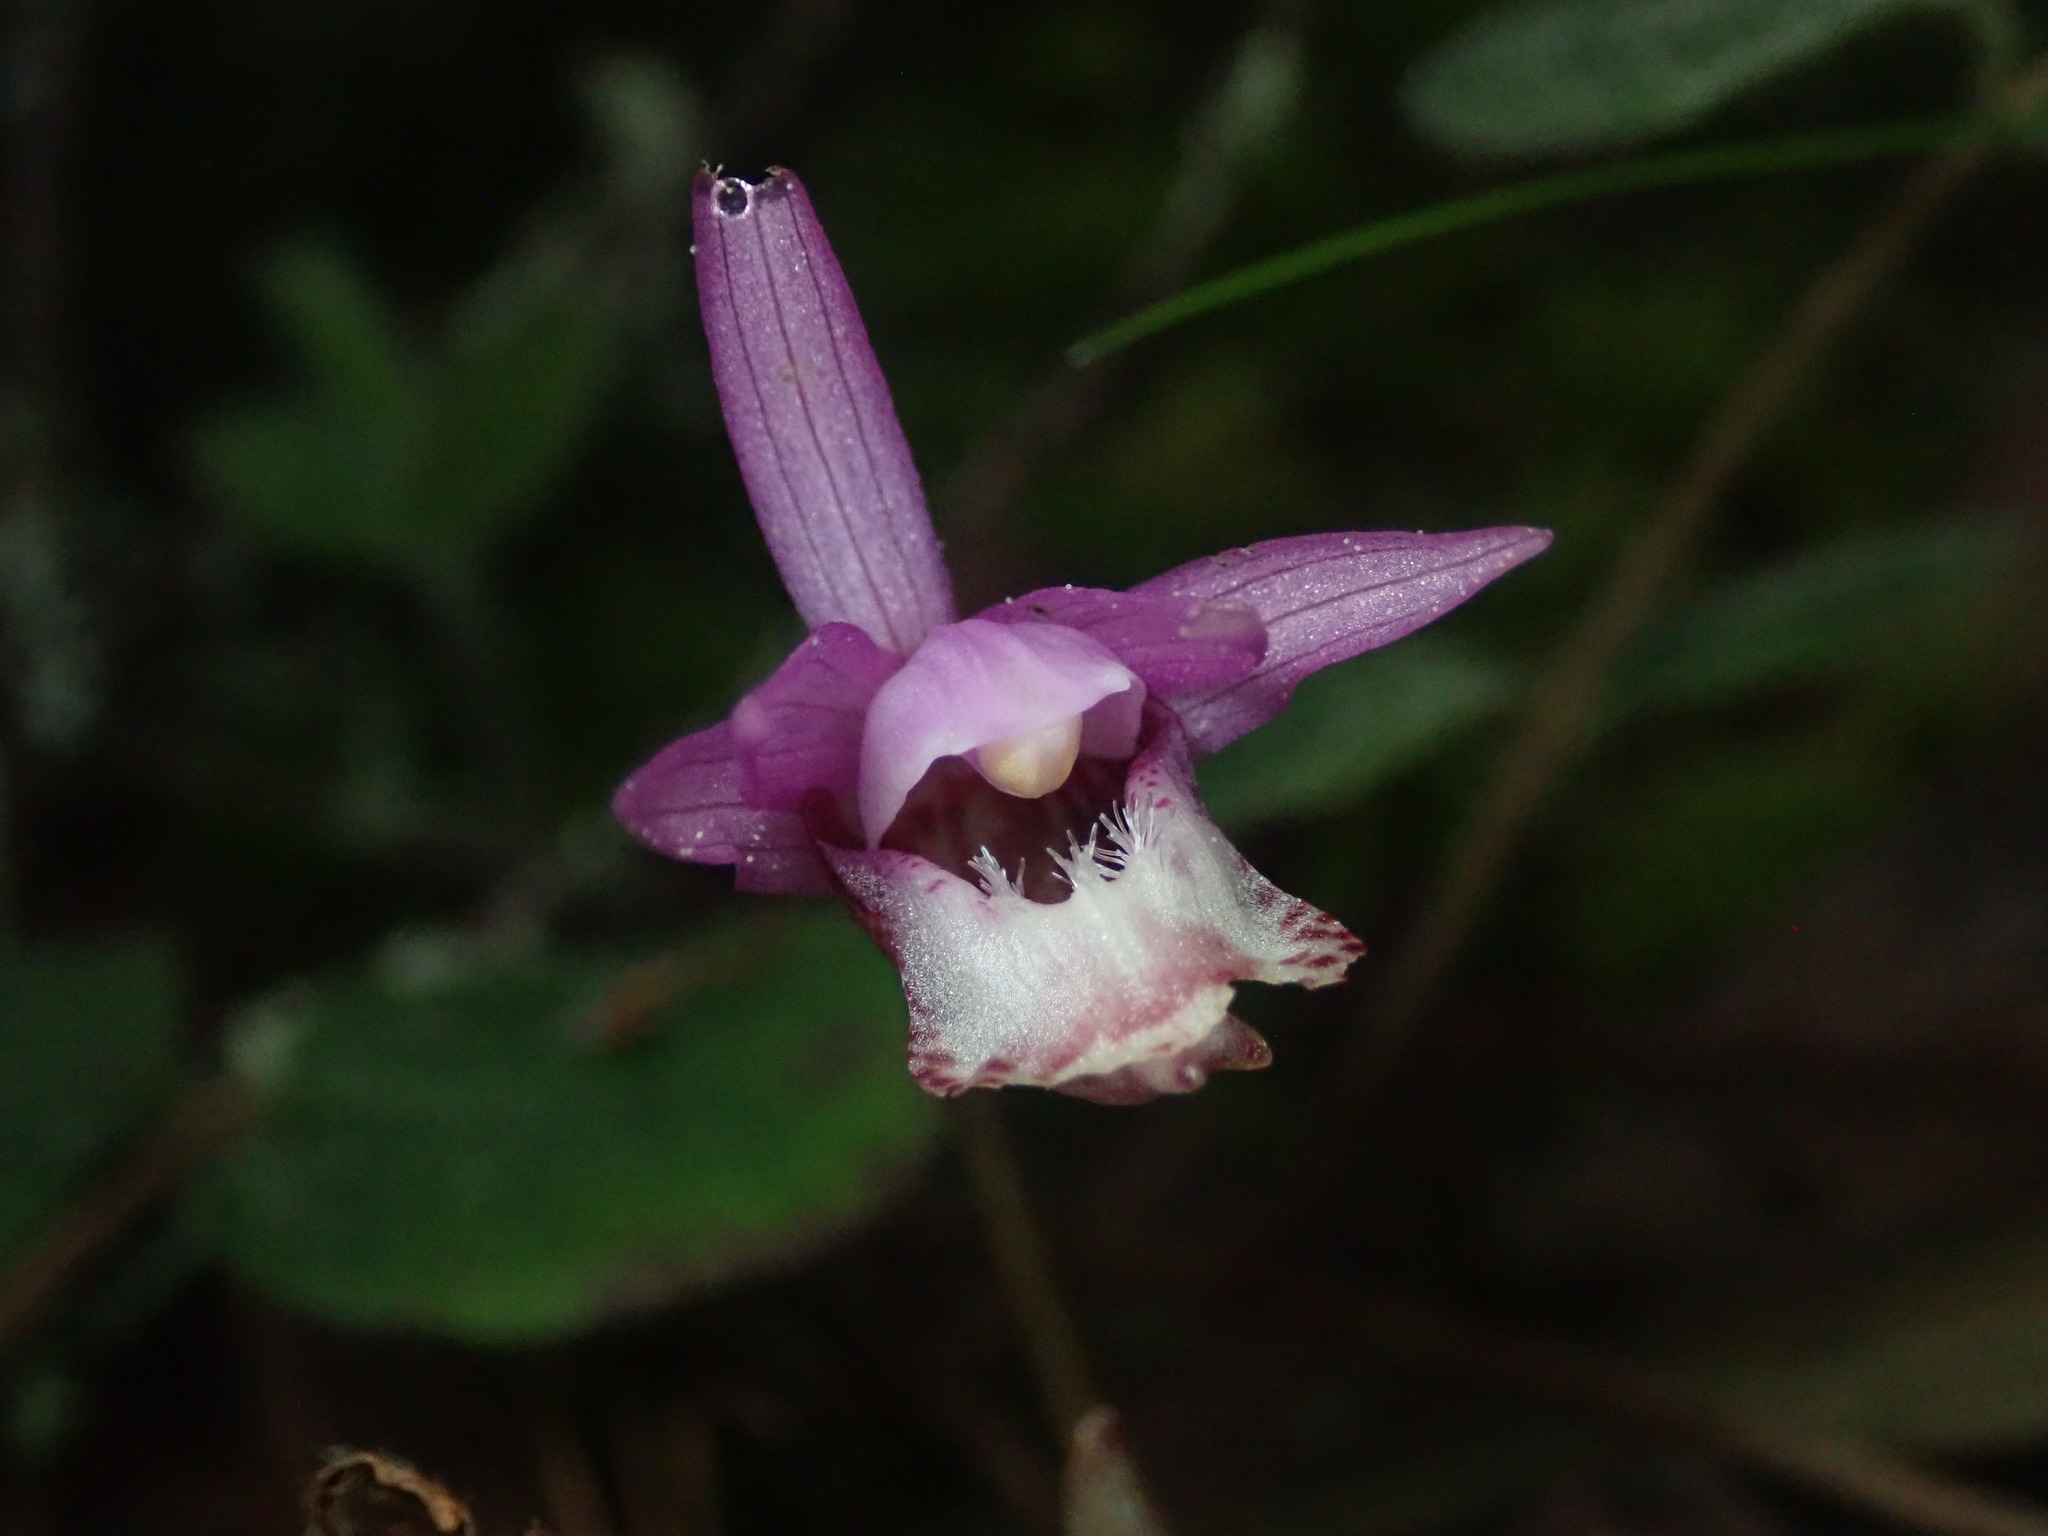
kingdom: Plantae
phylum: Tracheophyta
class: Liliopsida
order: Asparagales
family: Orchidaceae
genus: Calypso
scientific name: Calypso bulbosa
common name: Calypso
